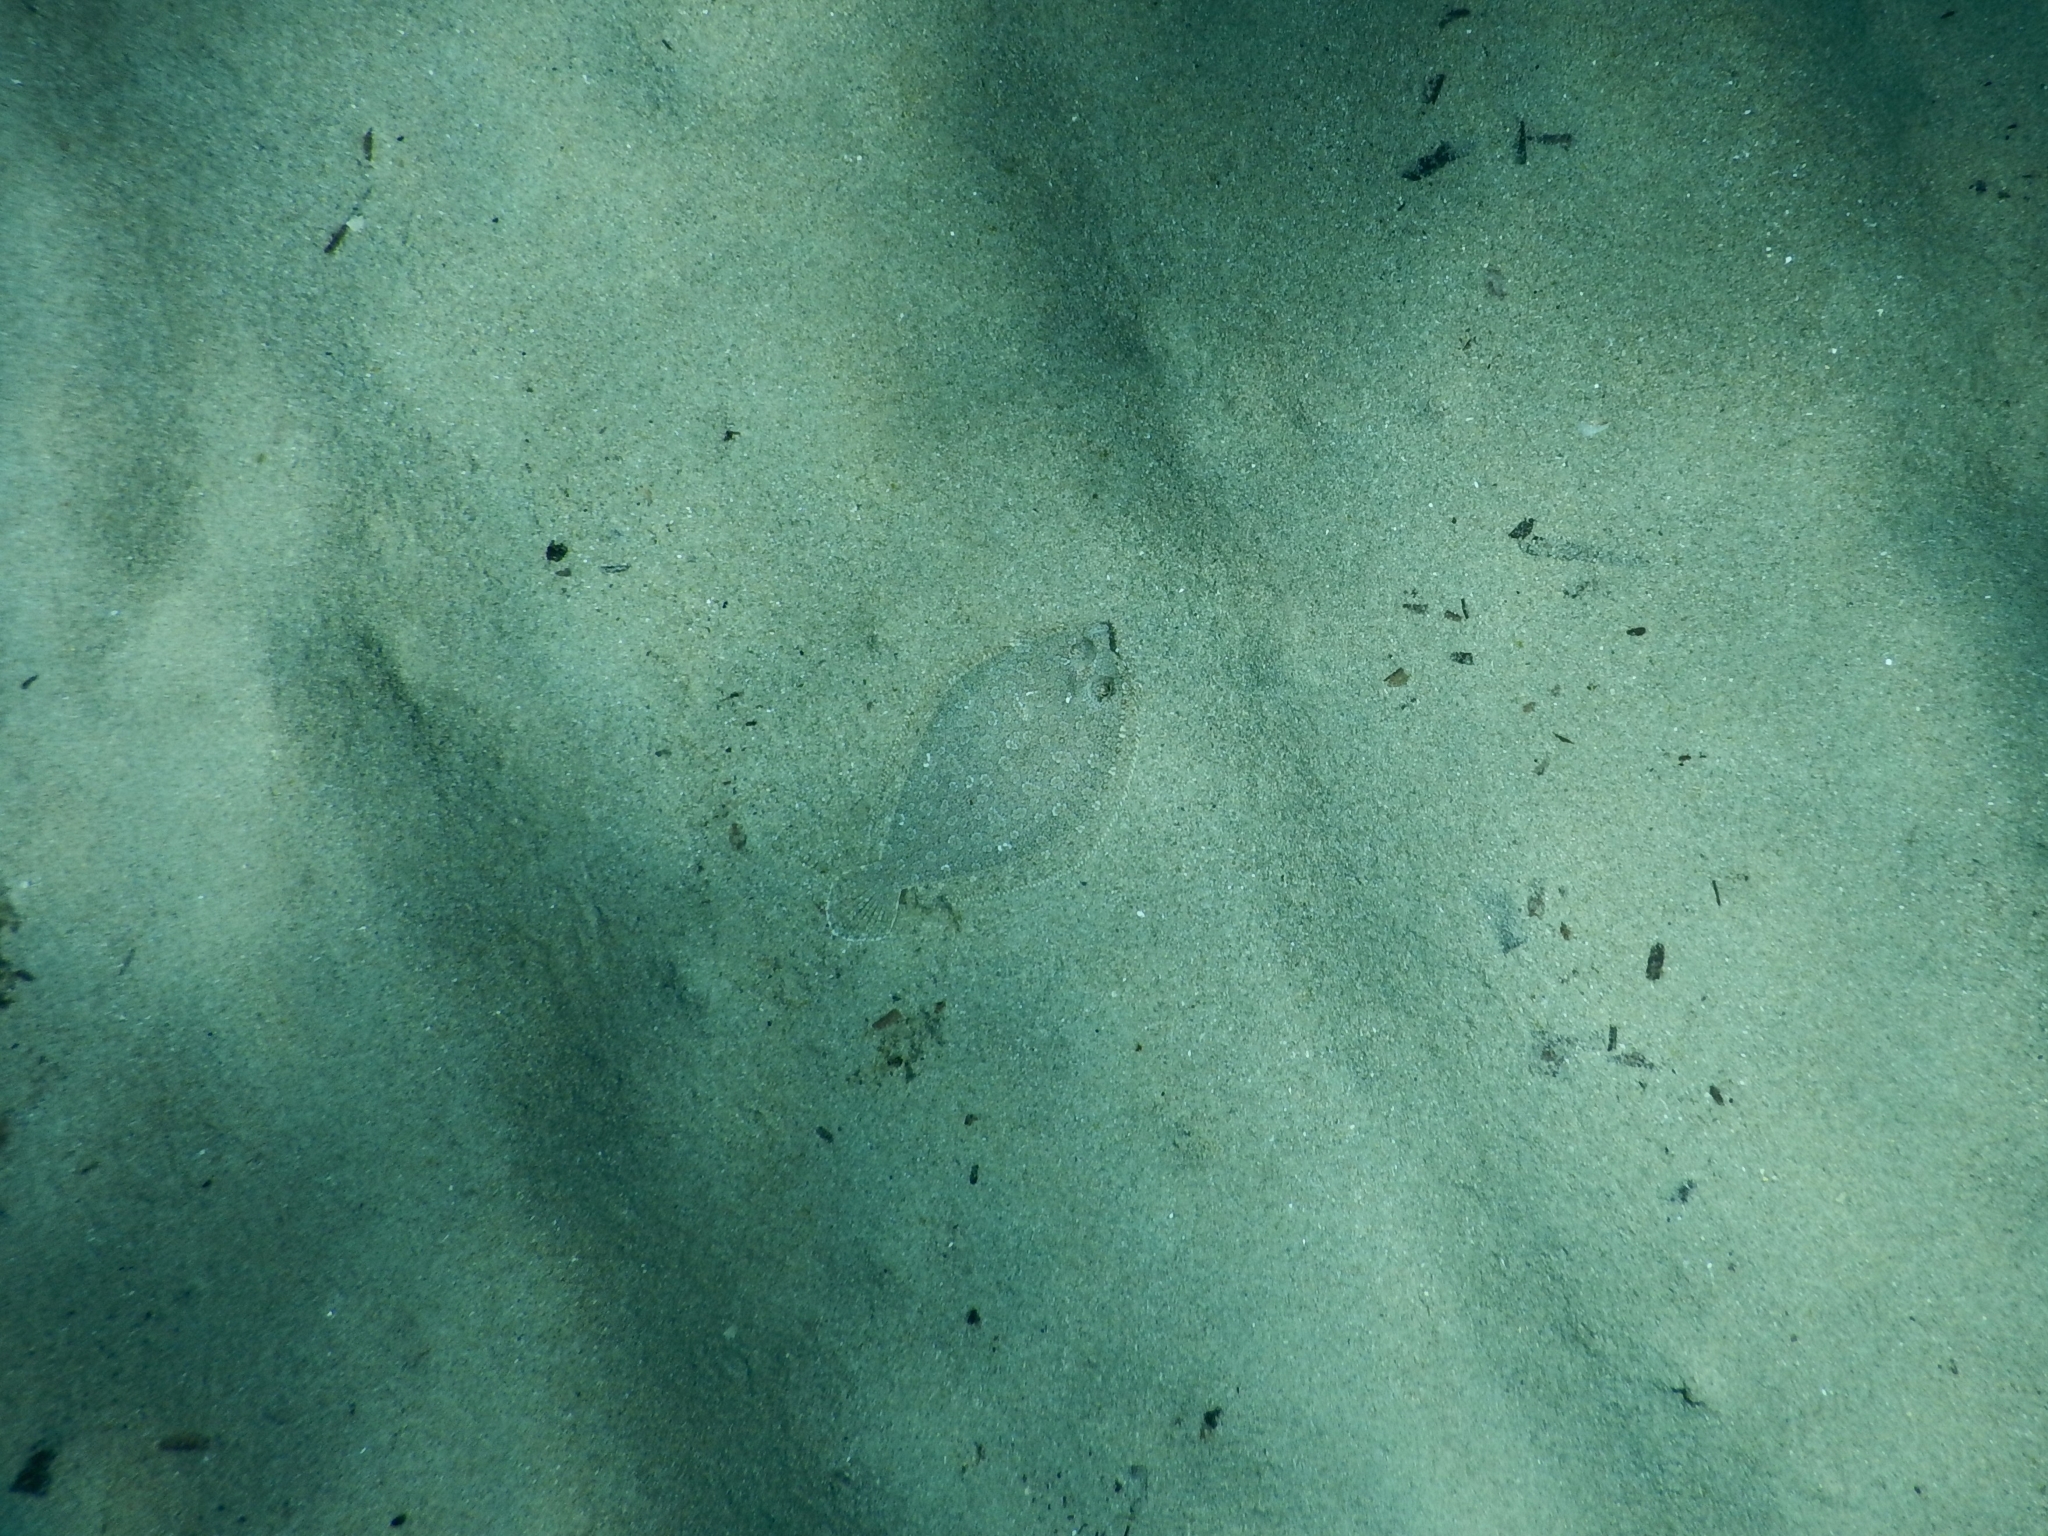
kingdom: Animalia
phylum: Chordata
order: Pleuronectiformes
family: Bothidae
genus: Bothus
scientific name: Bothus podas
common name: Wide-eyed flounder
